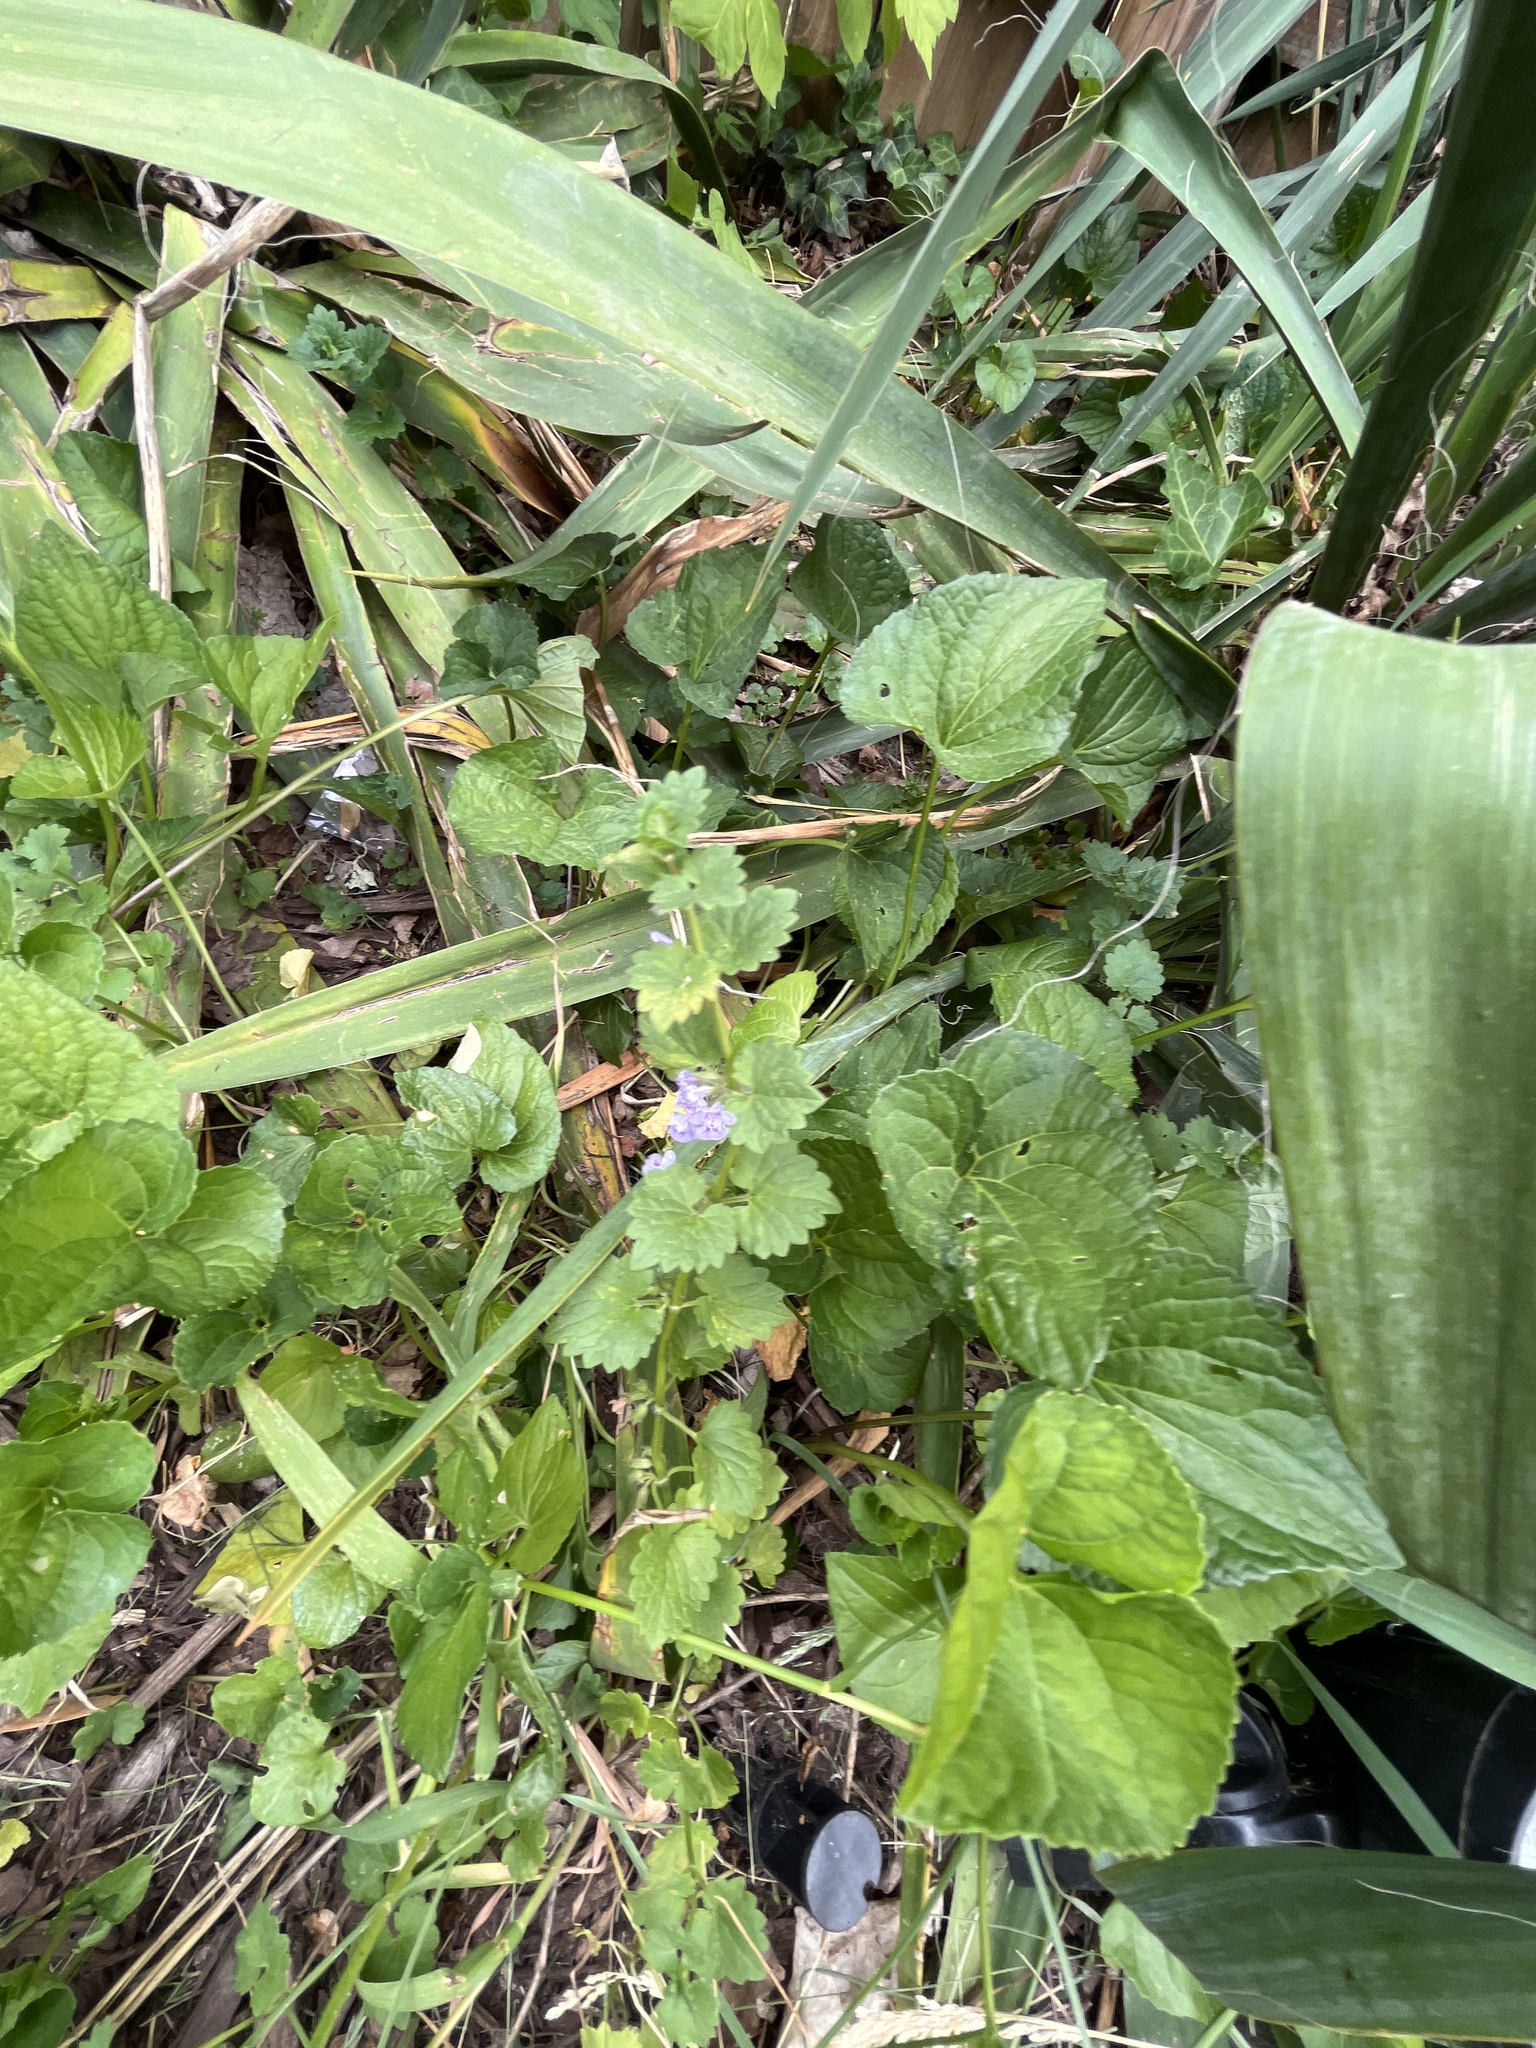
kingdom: Plantae
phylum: Tracheophyta
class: Magnoliopsida
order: Lamiales
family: Lamiaceae
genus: Glechoma
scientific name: Glechoma hederacea
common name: Ground ivy
